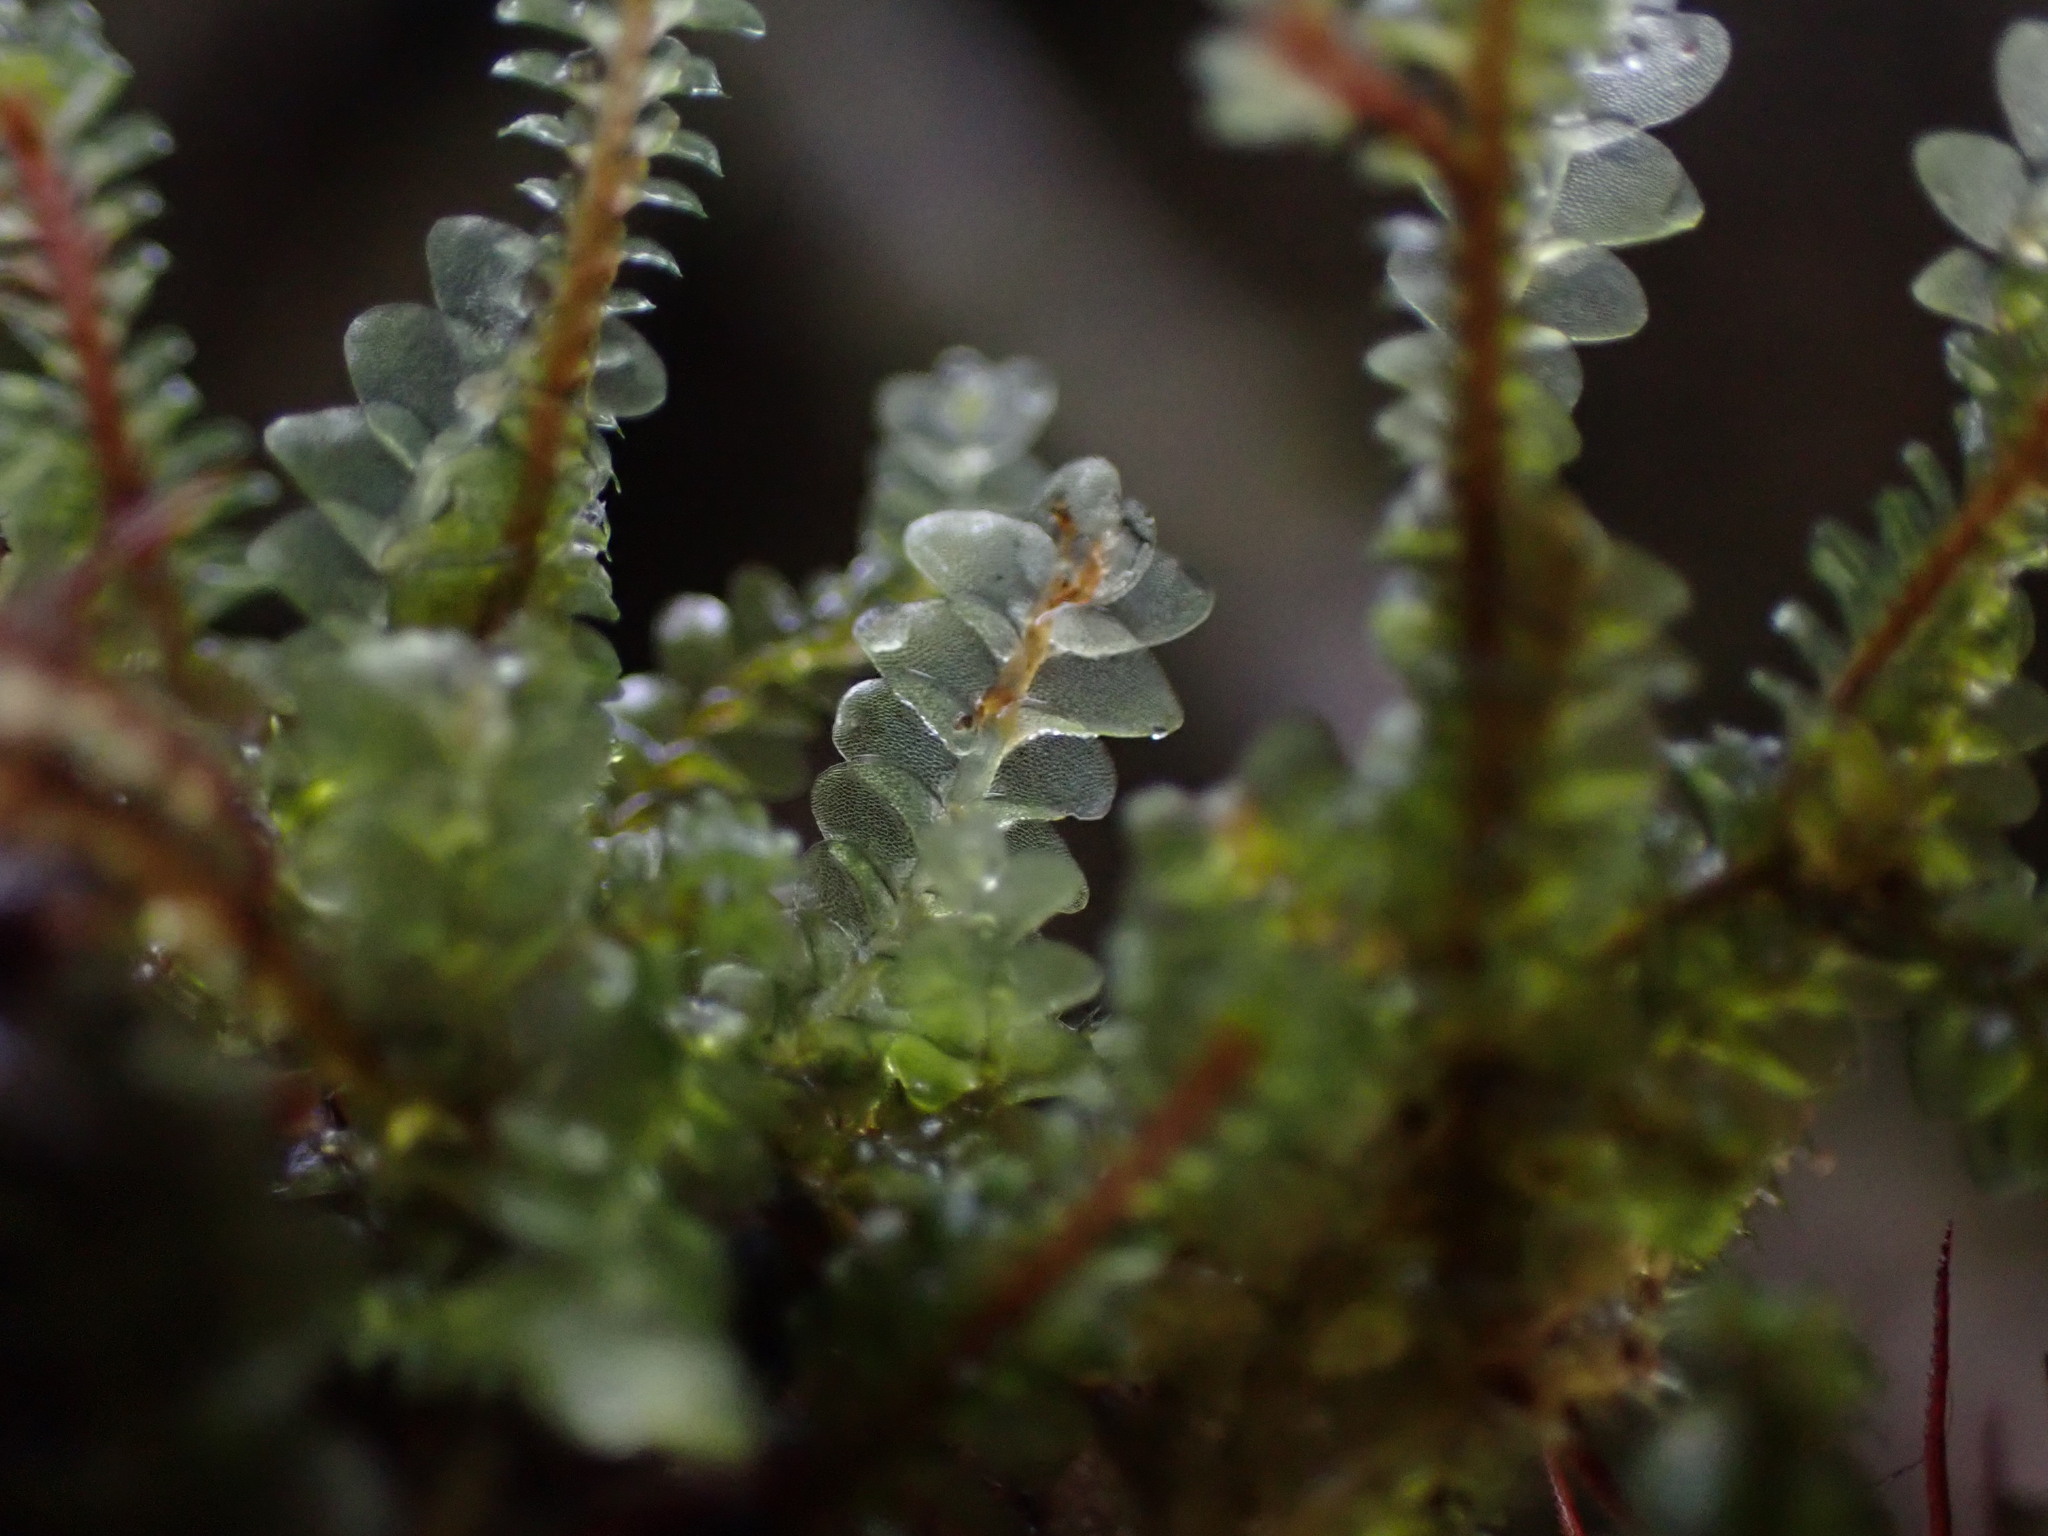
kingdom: Plantae
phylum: Marchantiophyta
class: Jungermanniopsida
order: Jungermanniales
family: Calypogeiaceae
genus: Calypogeia
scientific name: Calypogeia integristipula
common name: Meylan s pouchwort
